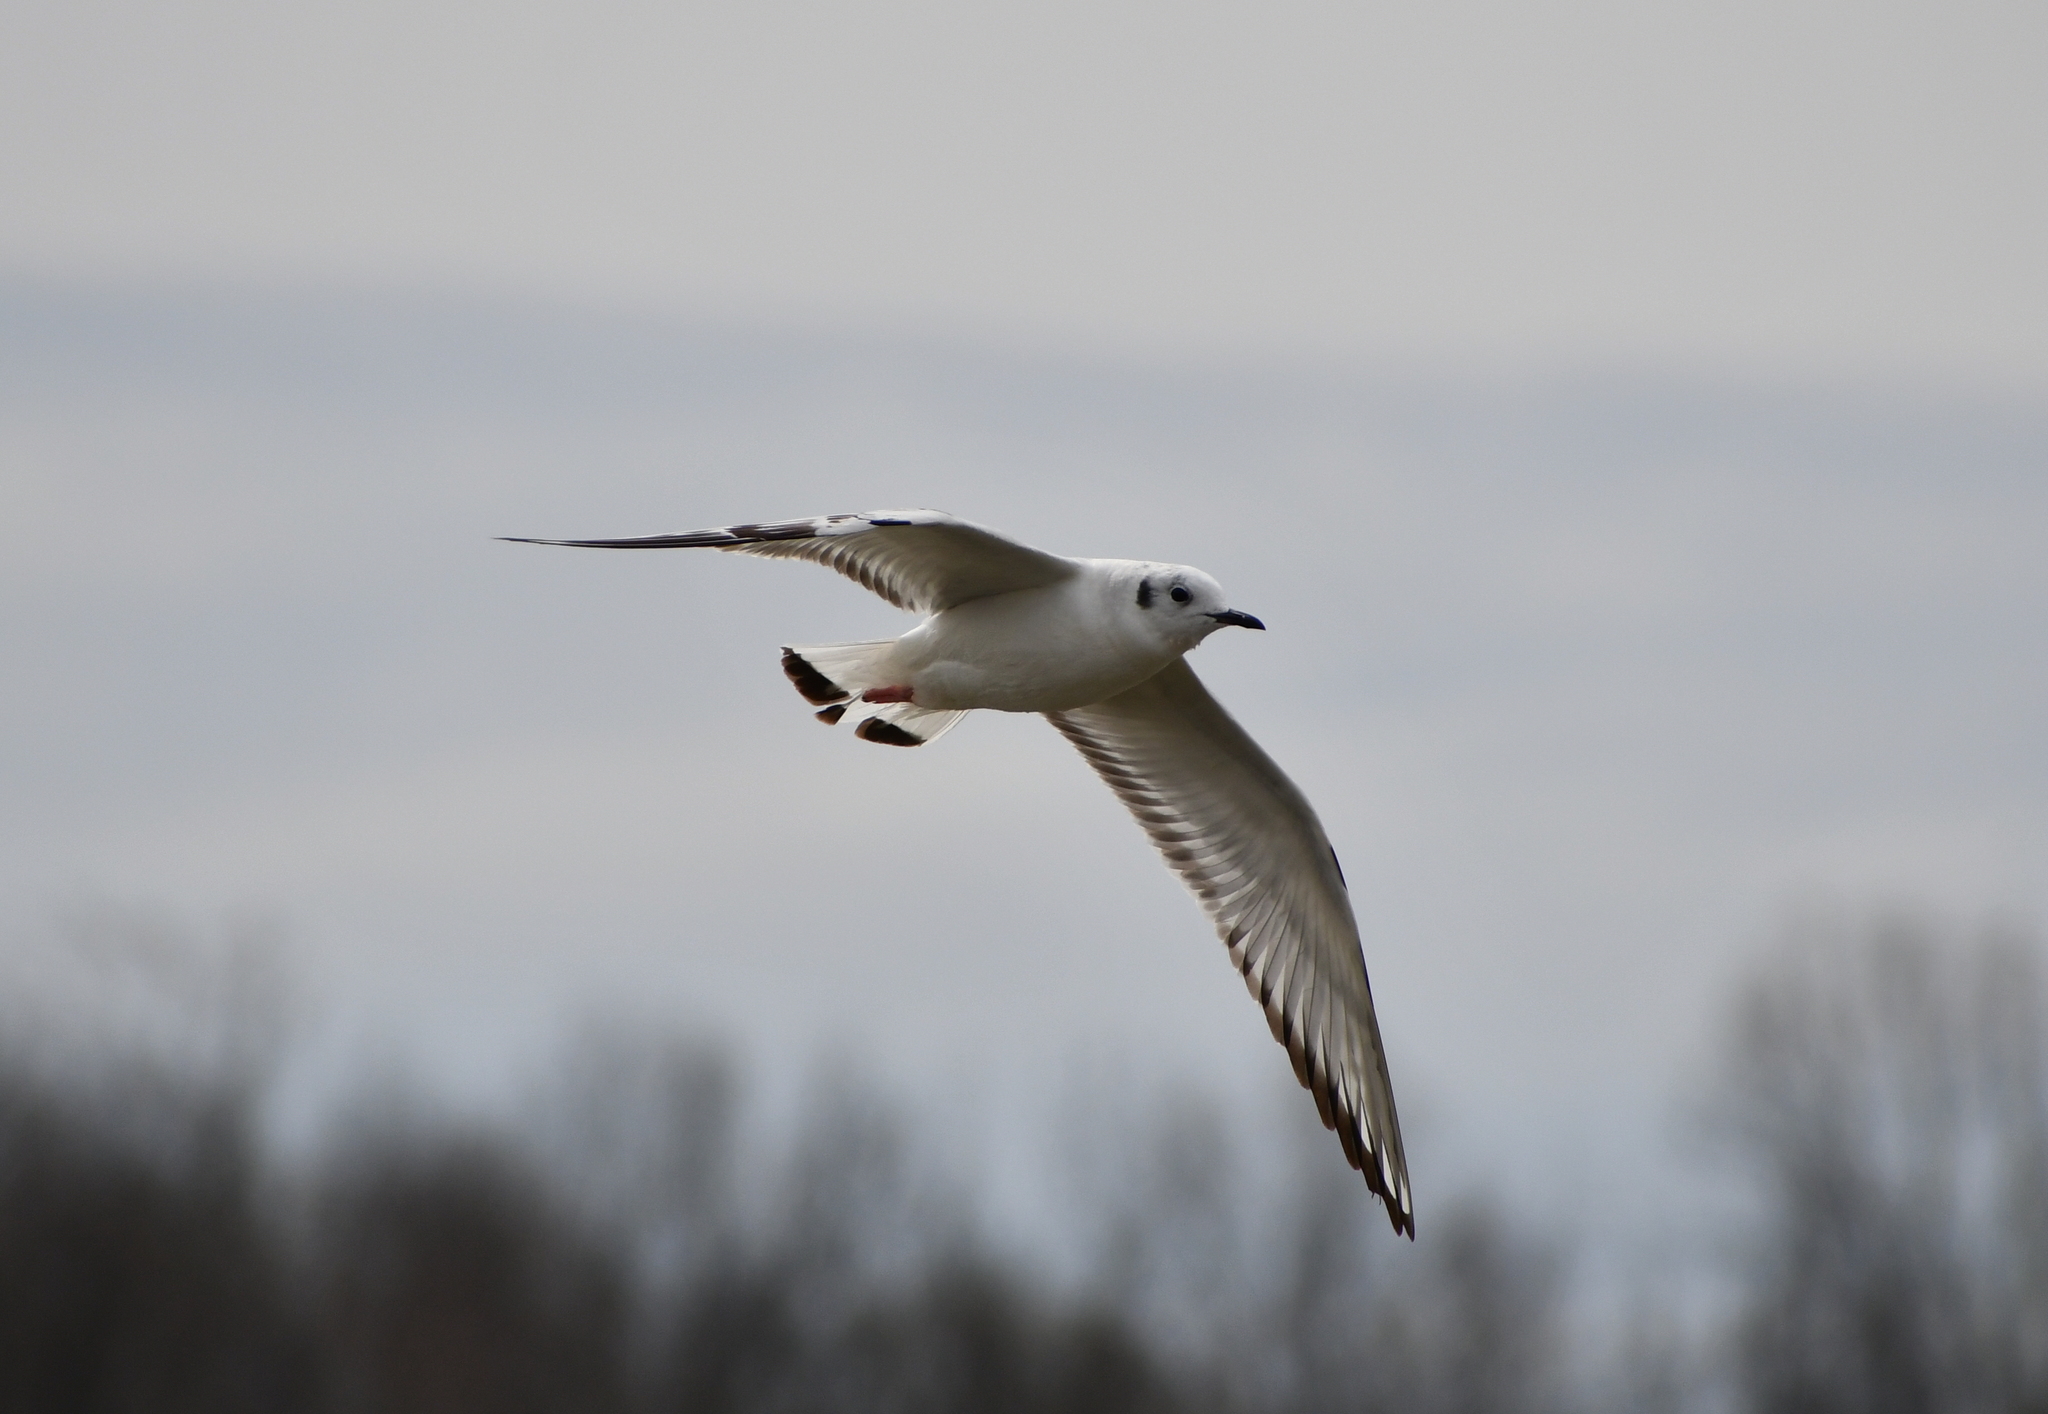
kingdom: Animalia
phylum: Chordata
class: Aves
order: Charadriiformes
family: Laridae
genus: Chroicocephalus
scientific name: Chroicocephalus philadelphia
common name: Bonaparte's gull
